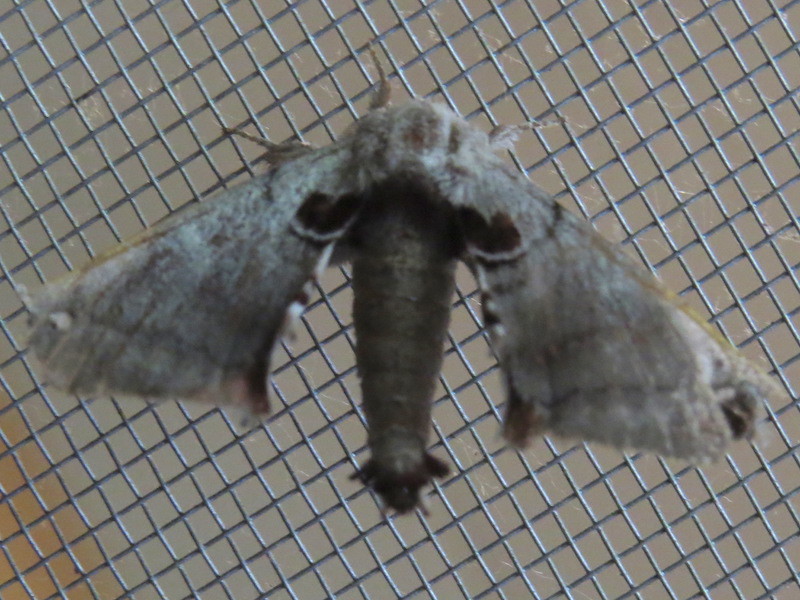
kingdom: Animalia
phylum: Arthropoda
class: Insecta
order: Lepidoptera
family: Apatelodidae
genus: Hygrochroa
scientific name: Hygrochroa Apatelodes torrefacta
